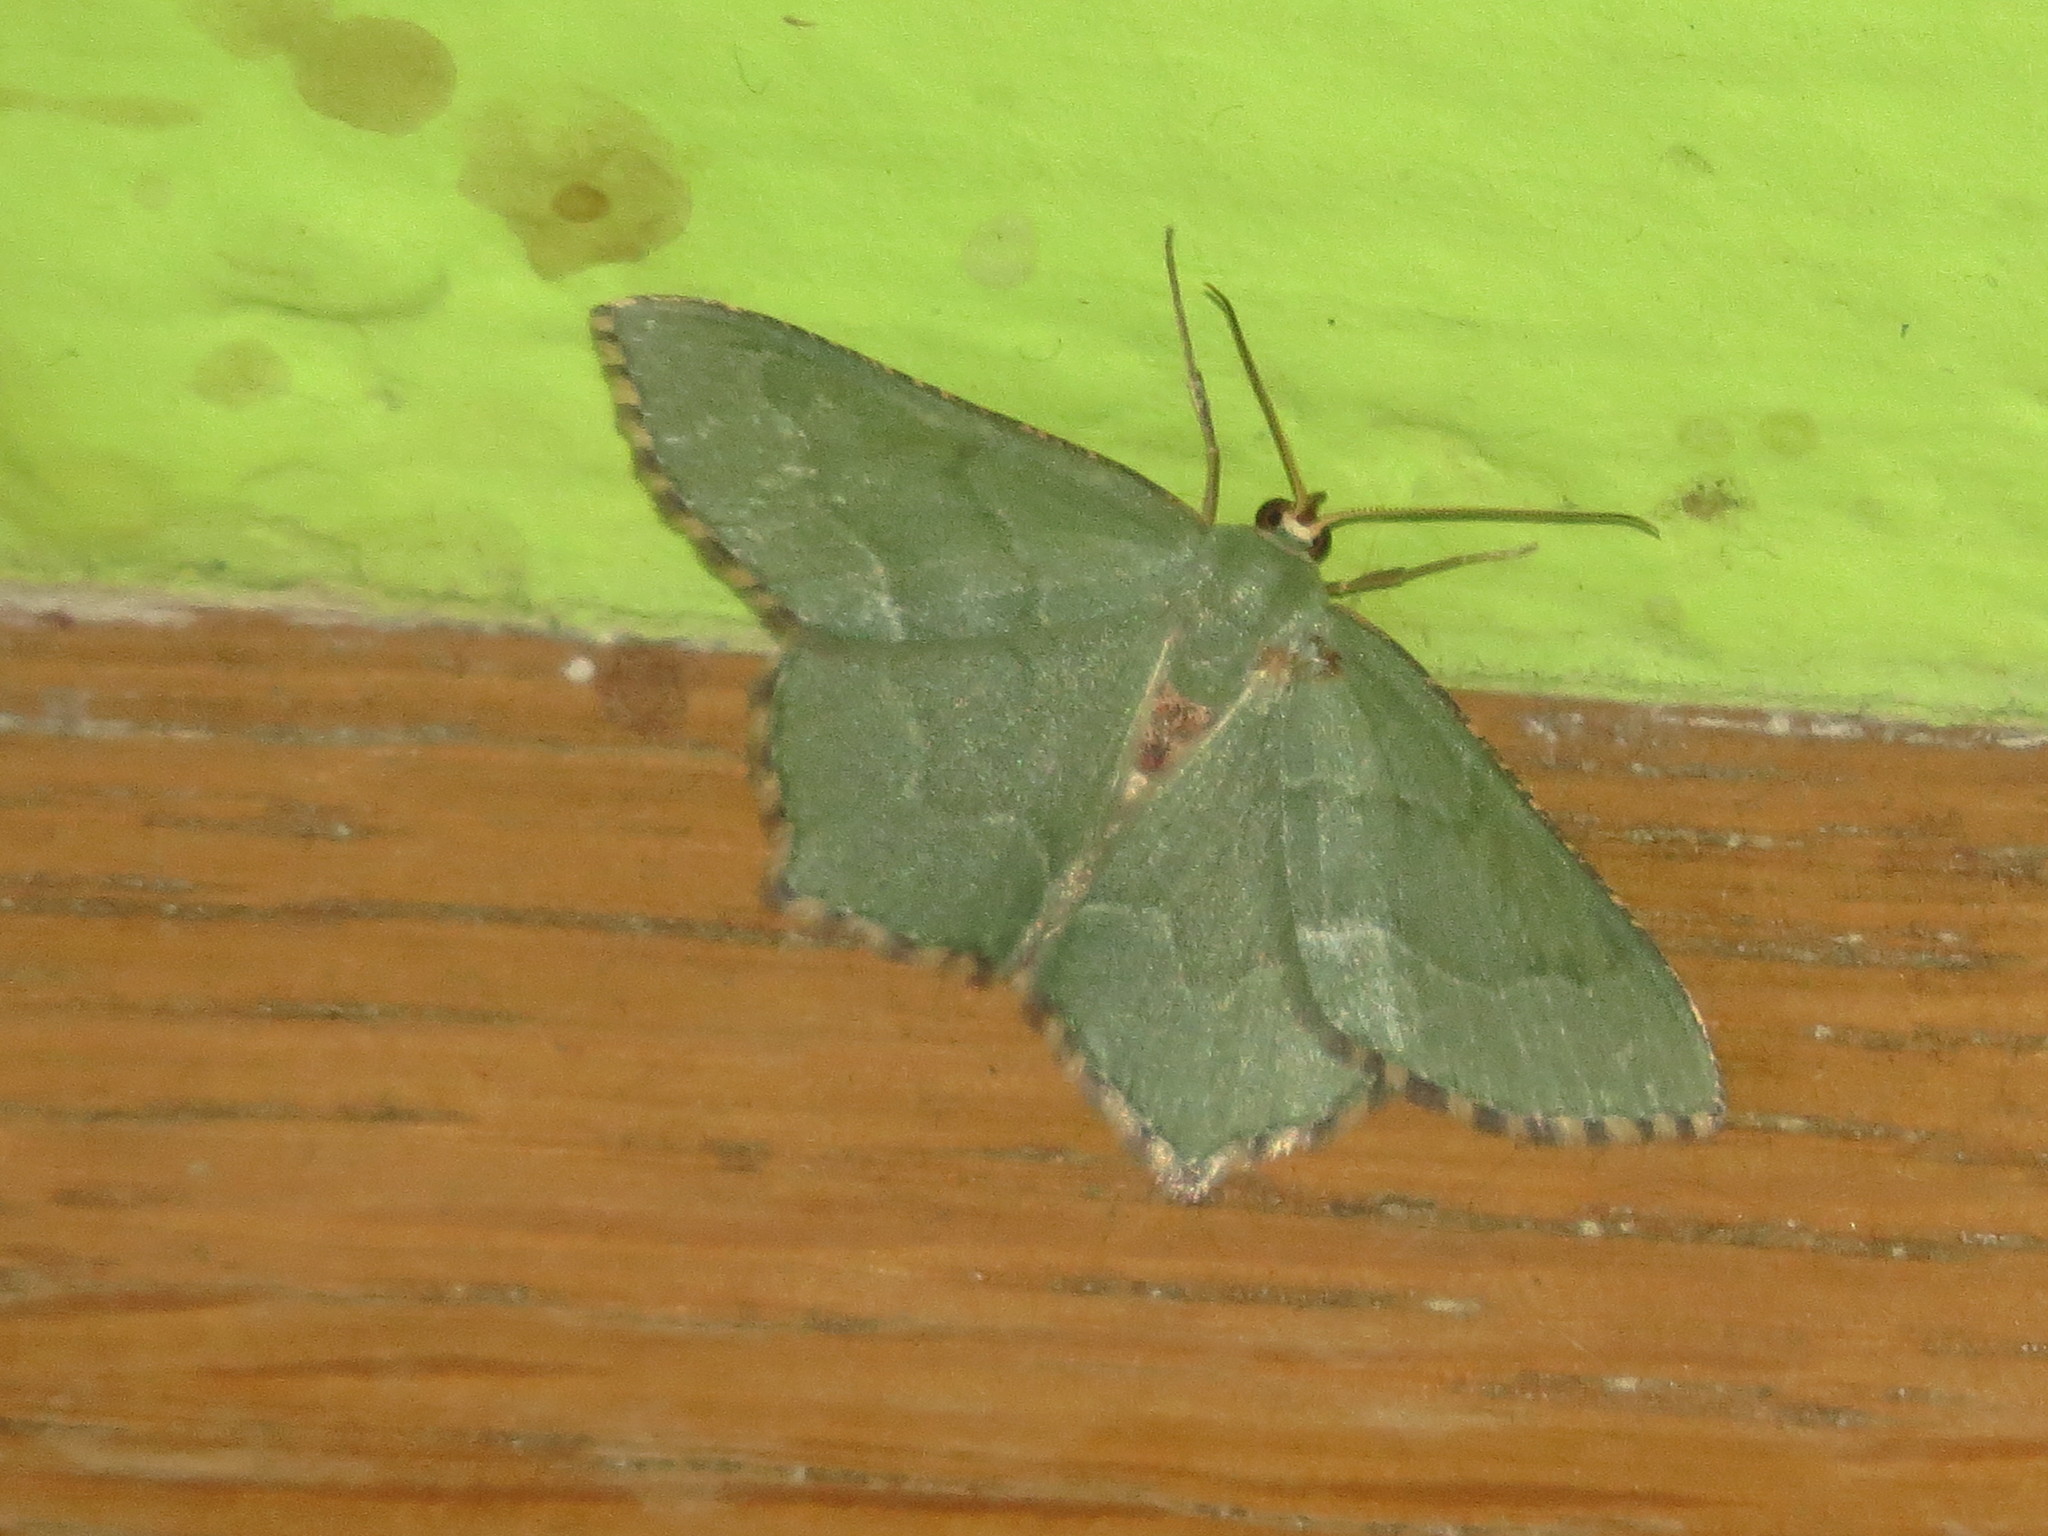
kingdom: Animalia
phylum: Arthropoda
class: Insecta
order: Lepidoptera
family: Geometridae
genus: Hemithea
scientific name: Hemithea aestivaria
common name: Common emerald
